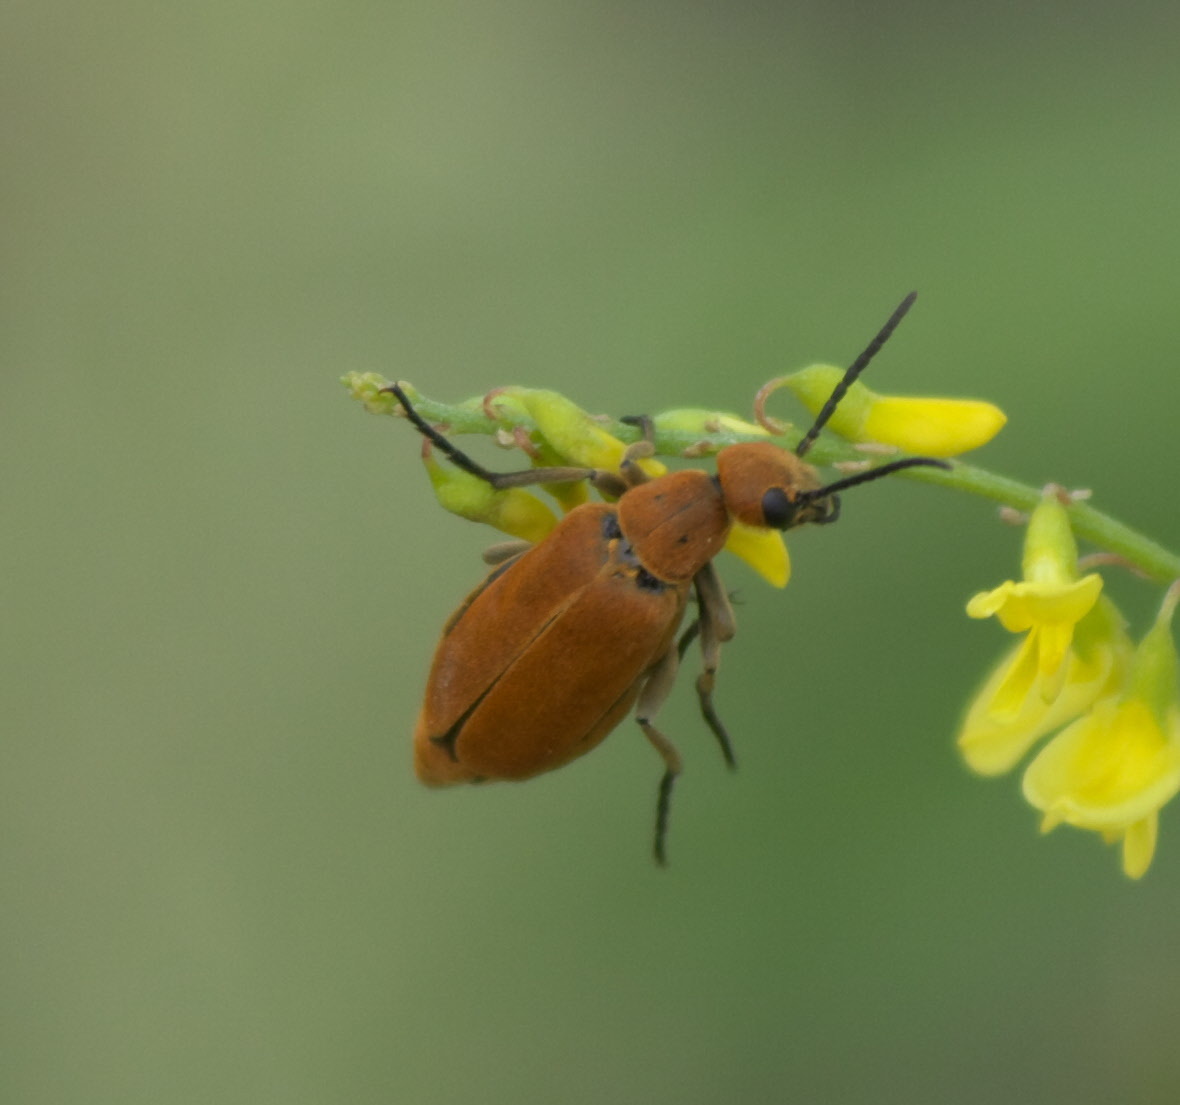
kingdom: Animalia
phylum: Arthropoda
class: Insecta
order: Coleoptera
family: Meloidae
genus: Epicauta
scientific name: Epicauta callosa
